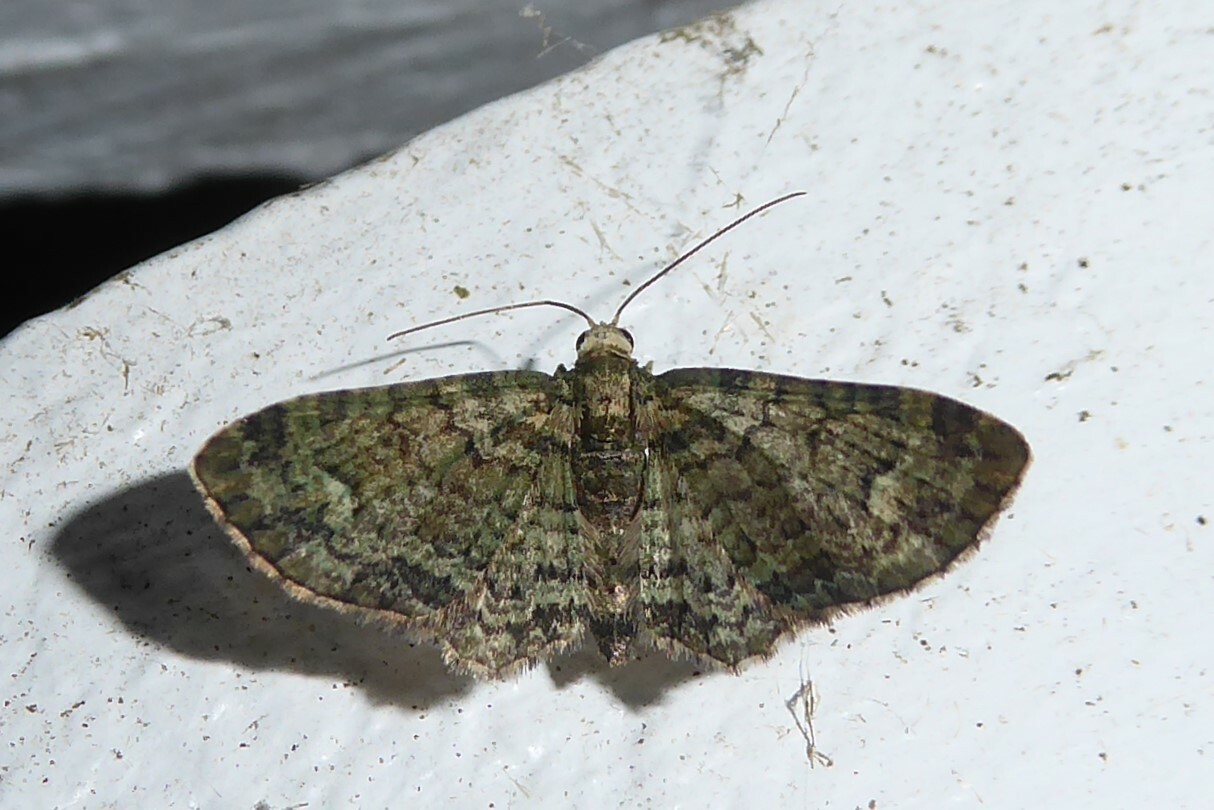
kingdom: Animalia
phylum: Arthropoda
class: Insecta
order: Lepidoptera
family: Geometridae
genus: Pasiphilodes
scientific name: Pasiphilodes testulata
